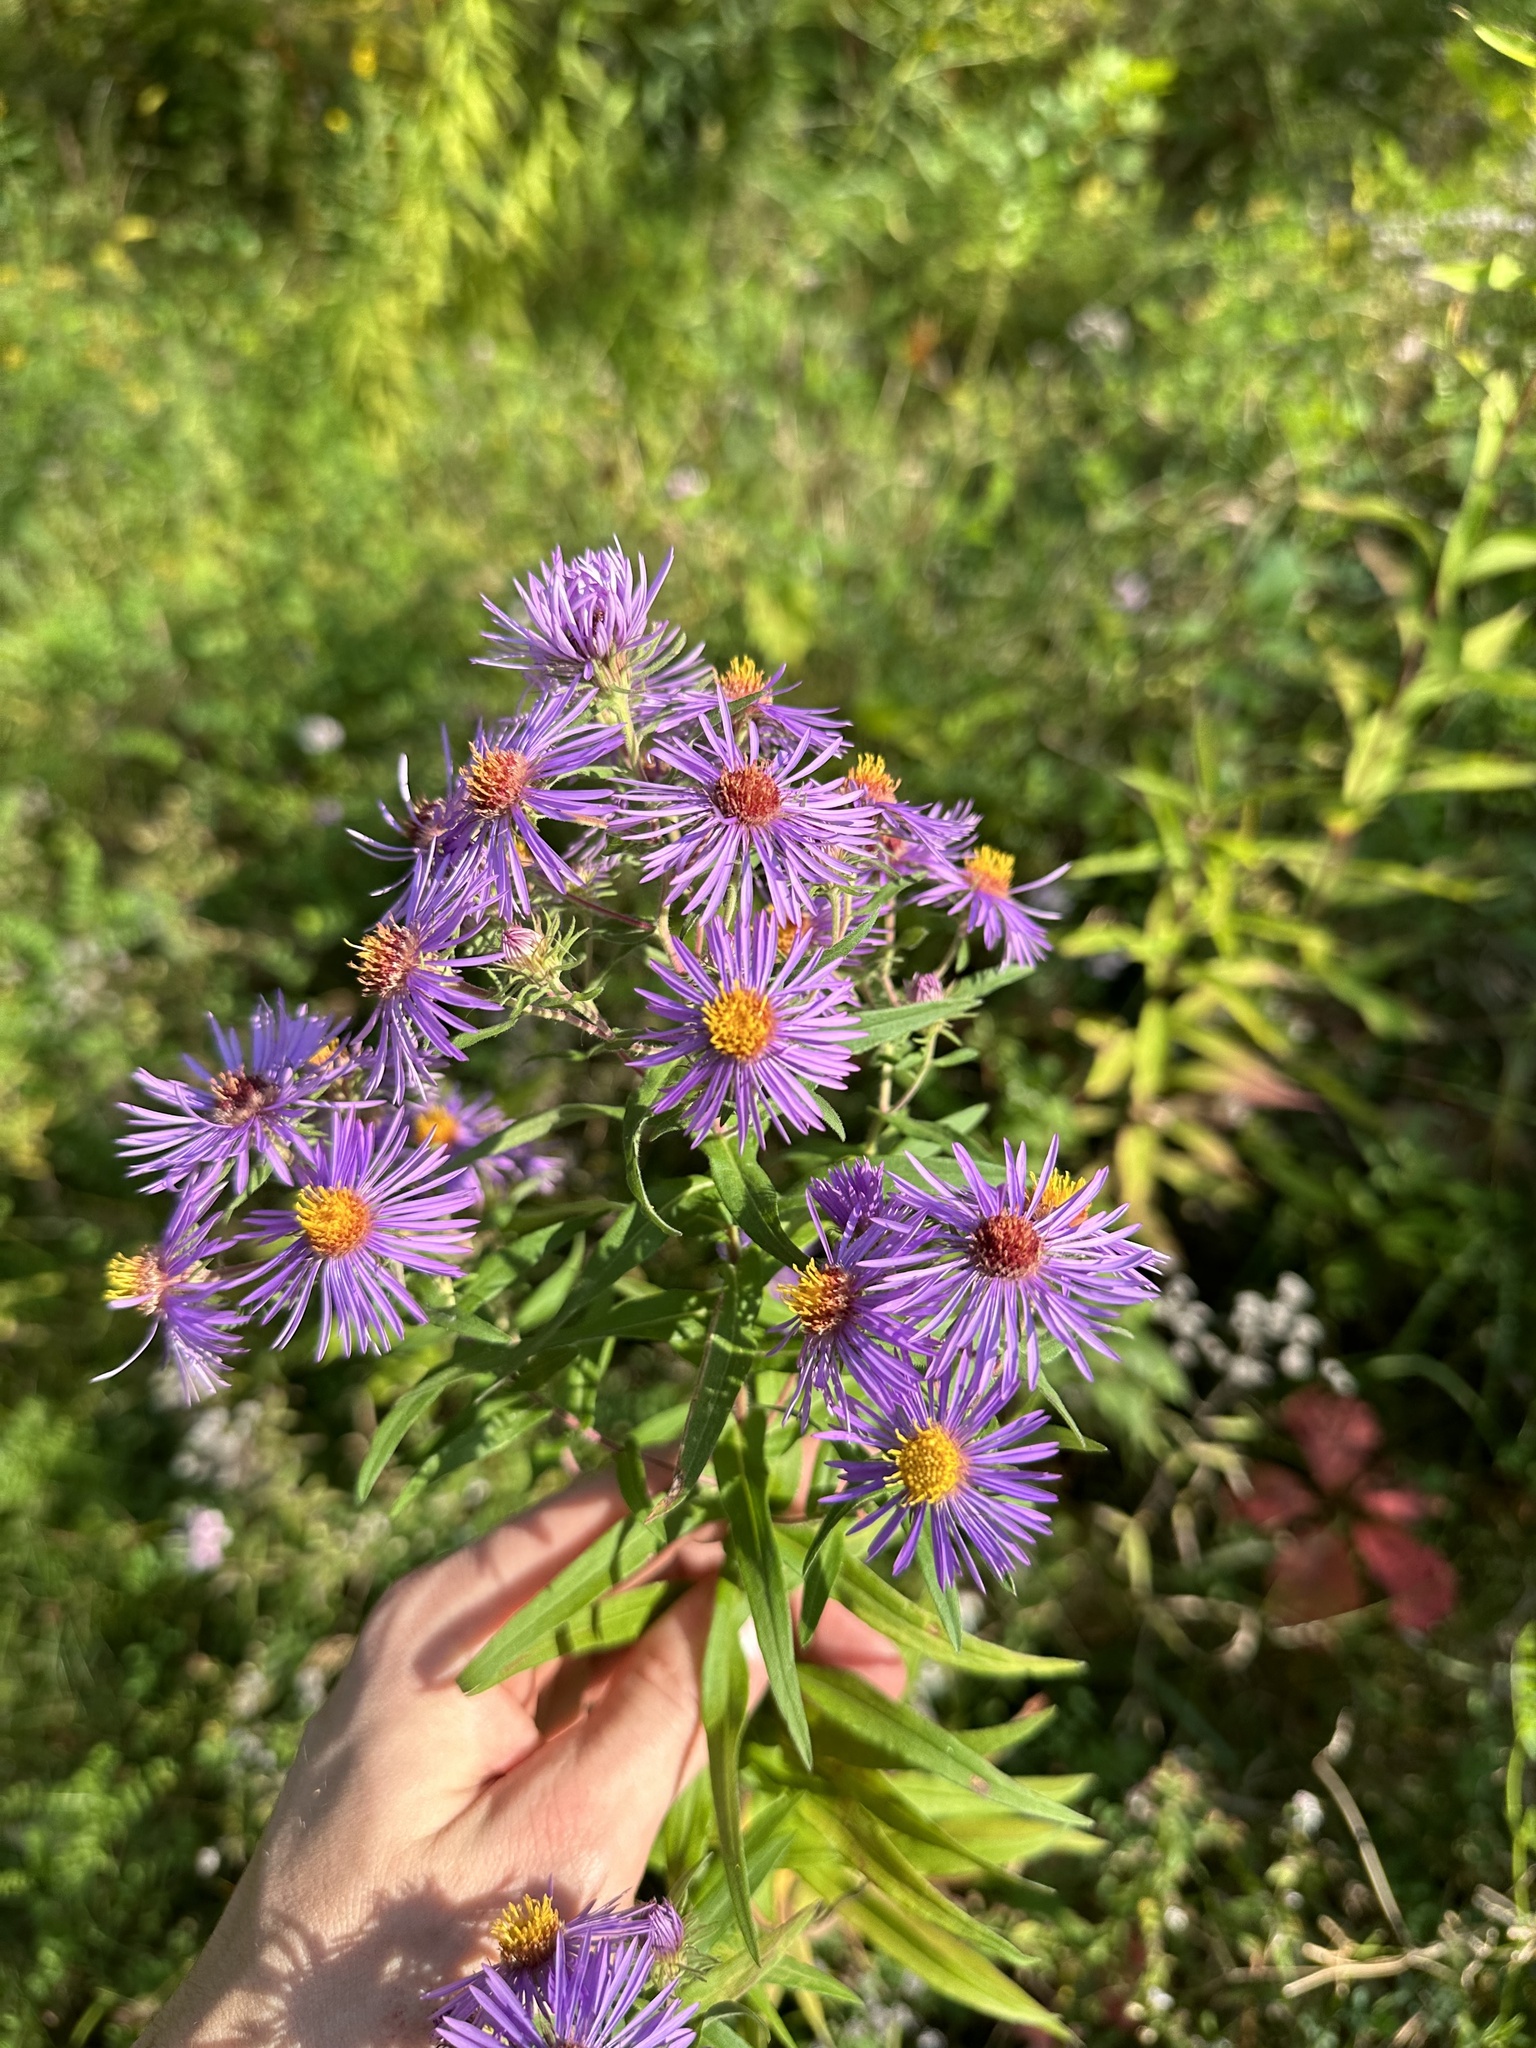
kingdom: Plantae
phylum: Tracheophyta
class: Magnoliopsida
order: Asterales
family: Asteraceae
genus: Symphyotrichum
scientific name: Symphyotrichum novae-angliae
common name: Michaelmas daisy
